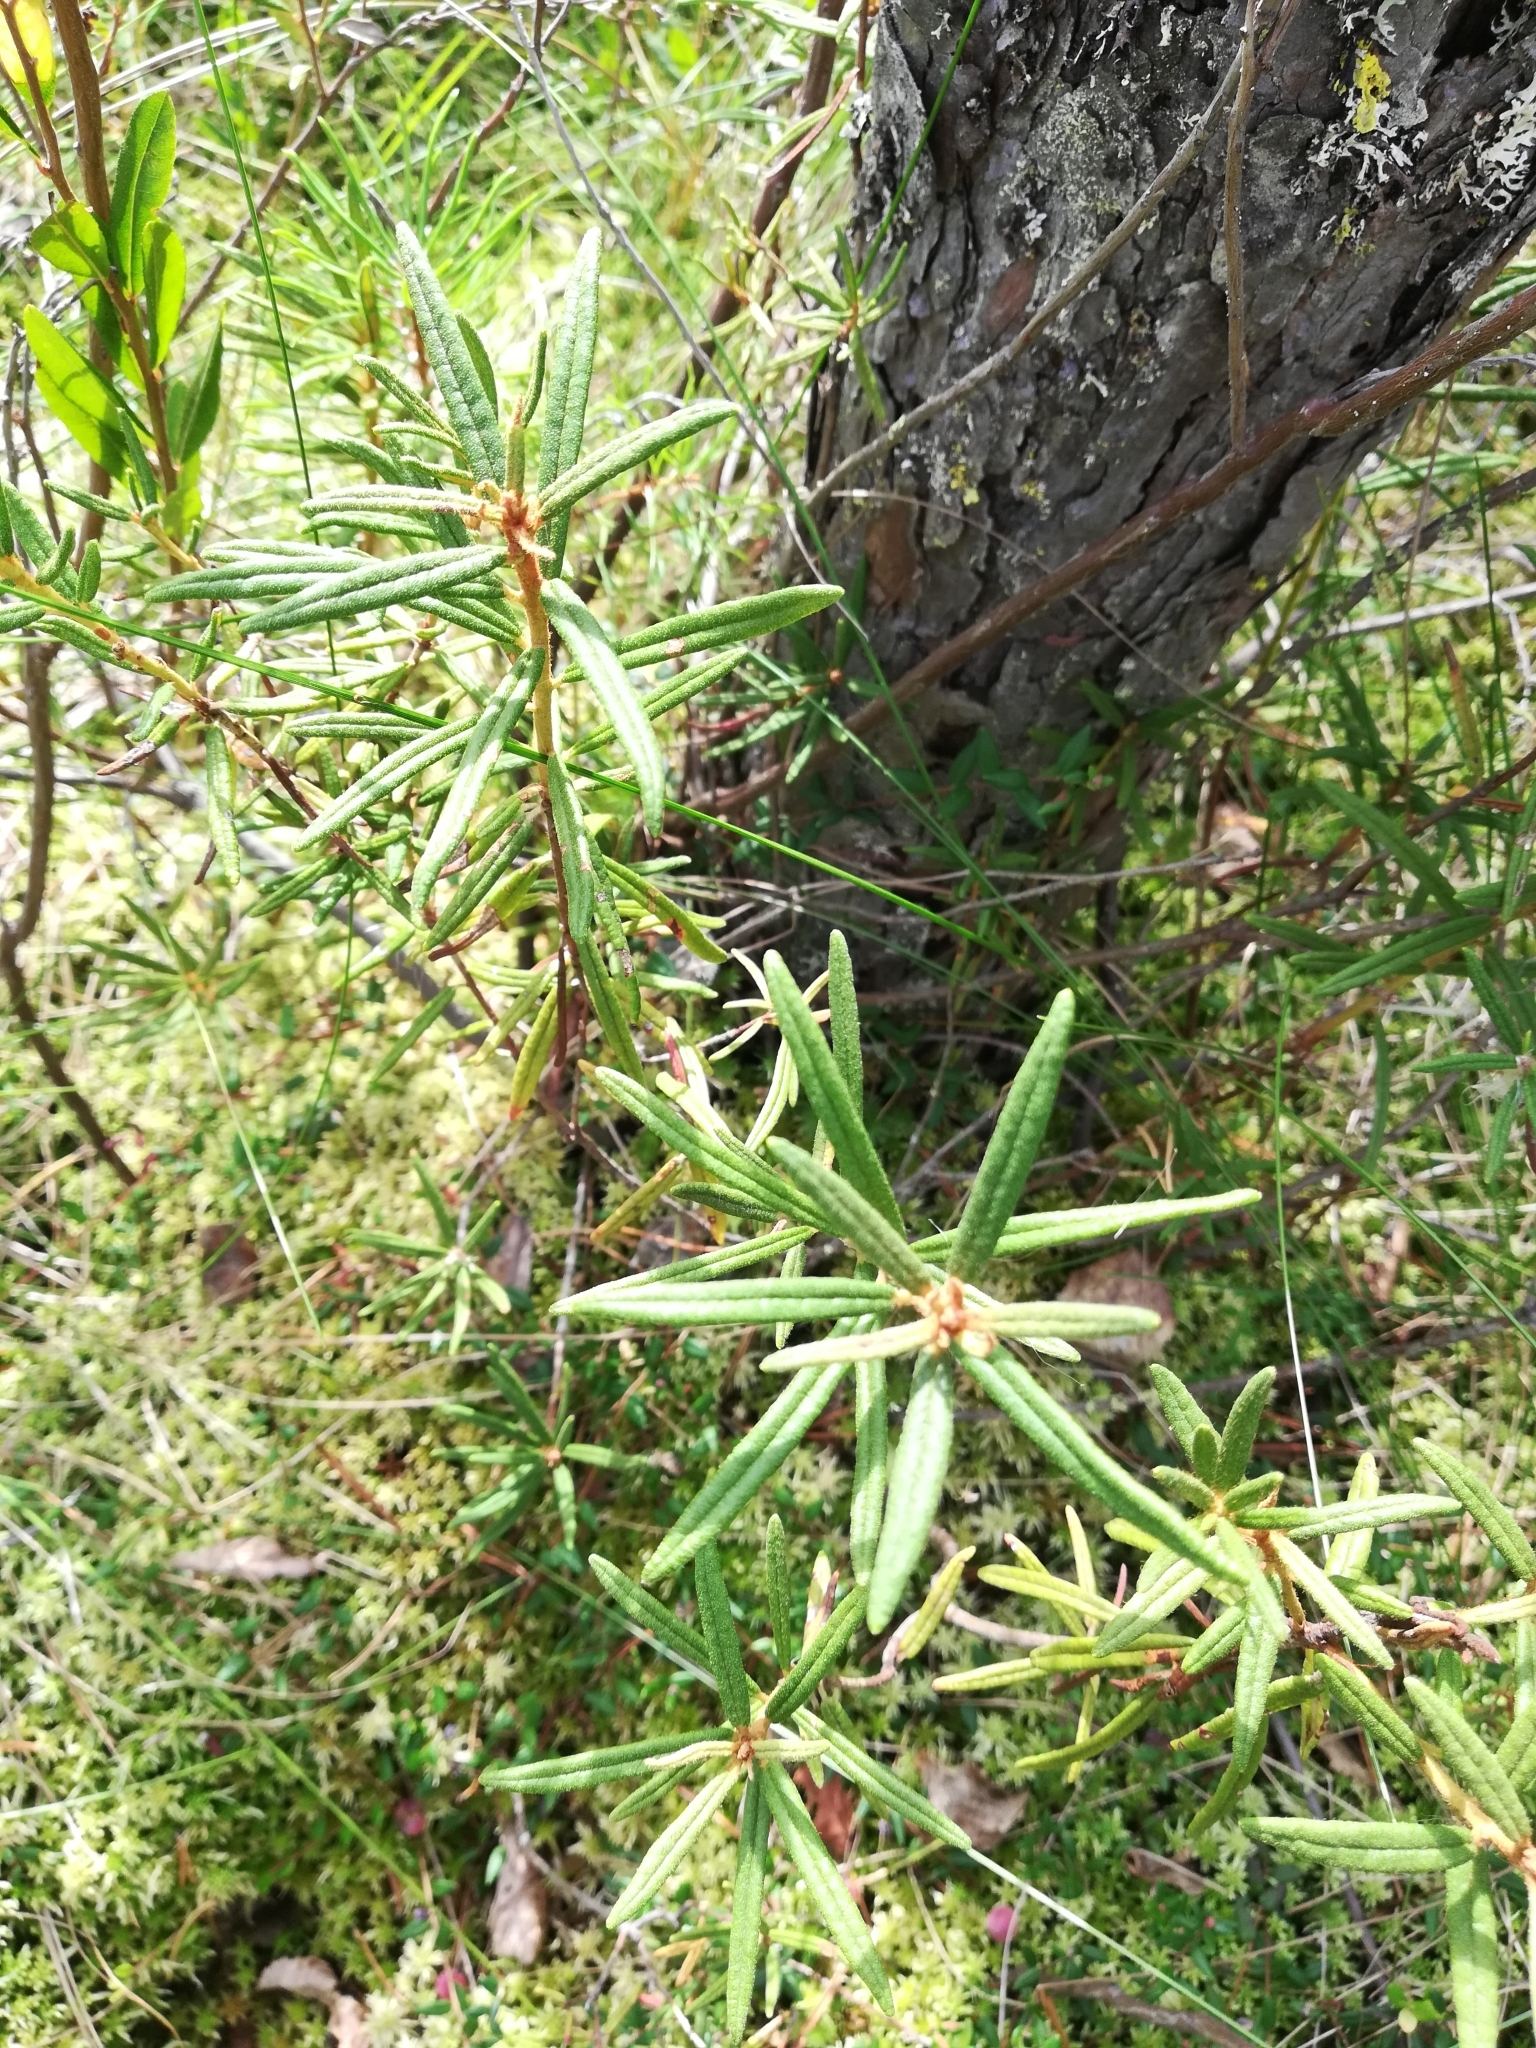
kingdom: Plantae
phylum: Tracheophyta
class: Magnoliopsida
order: Ericales
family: Ericaceae
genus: Rhododendron
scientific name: Rhododendron tomentosum
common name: Marsh labrador tea
